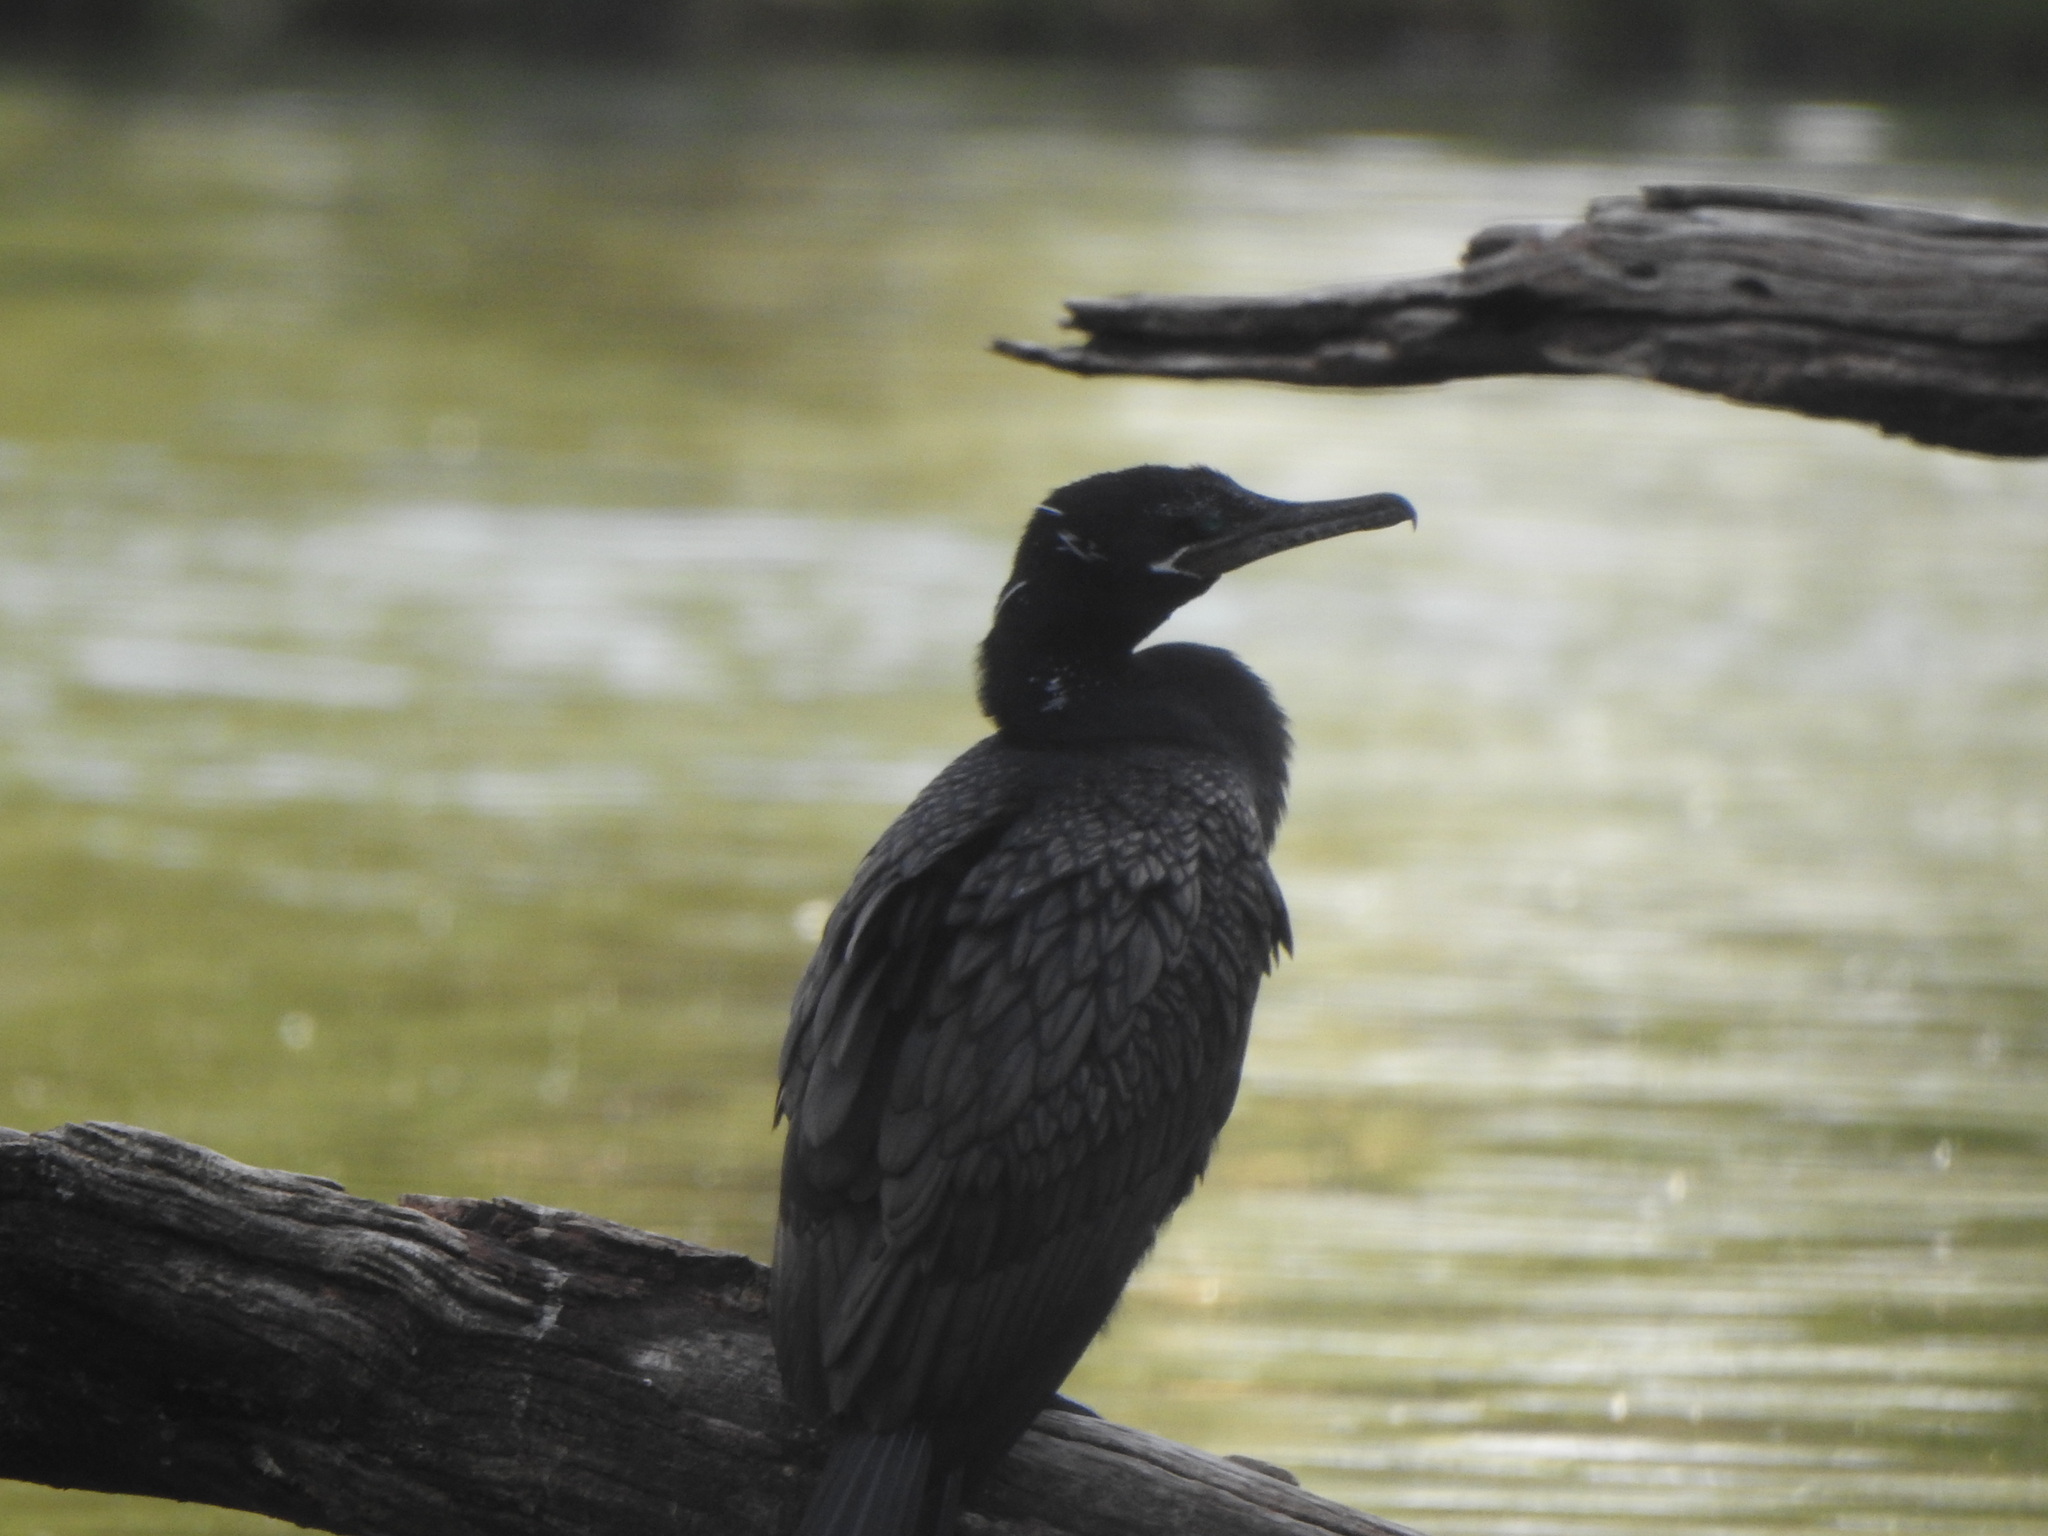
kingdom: Animalia
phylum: Chordata
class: Aves
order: Suliformes
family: Phalacrocoracidae
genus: Phalacrocorax
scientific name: Phalacrocorax brasilianus
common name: Neotropic cormorant
